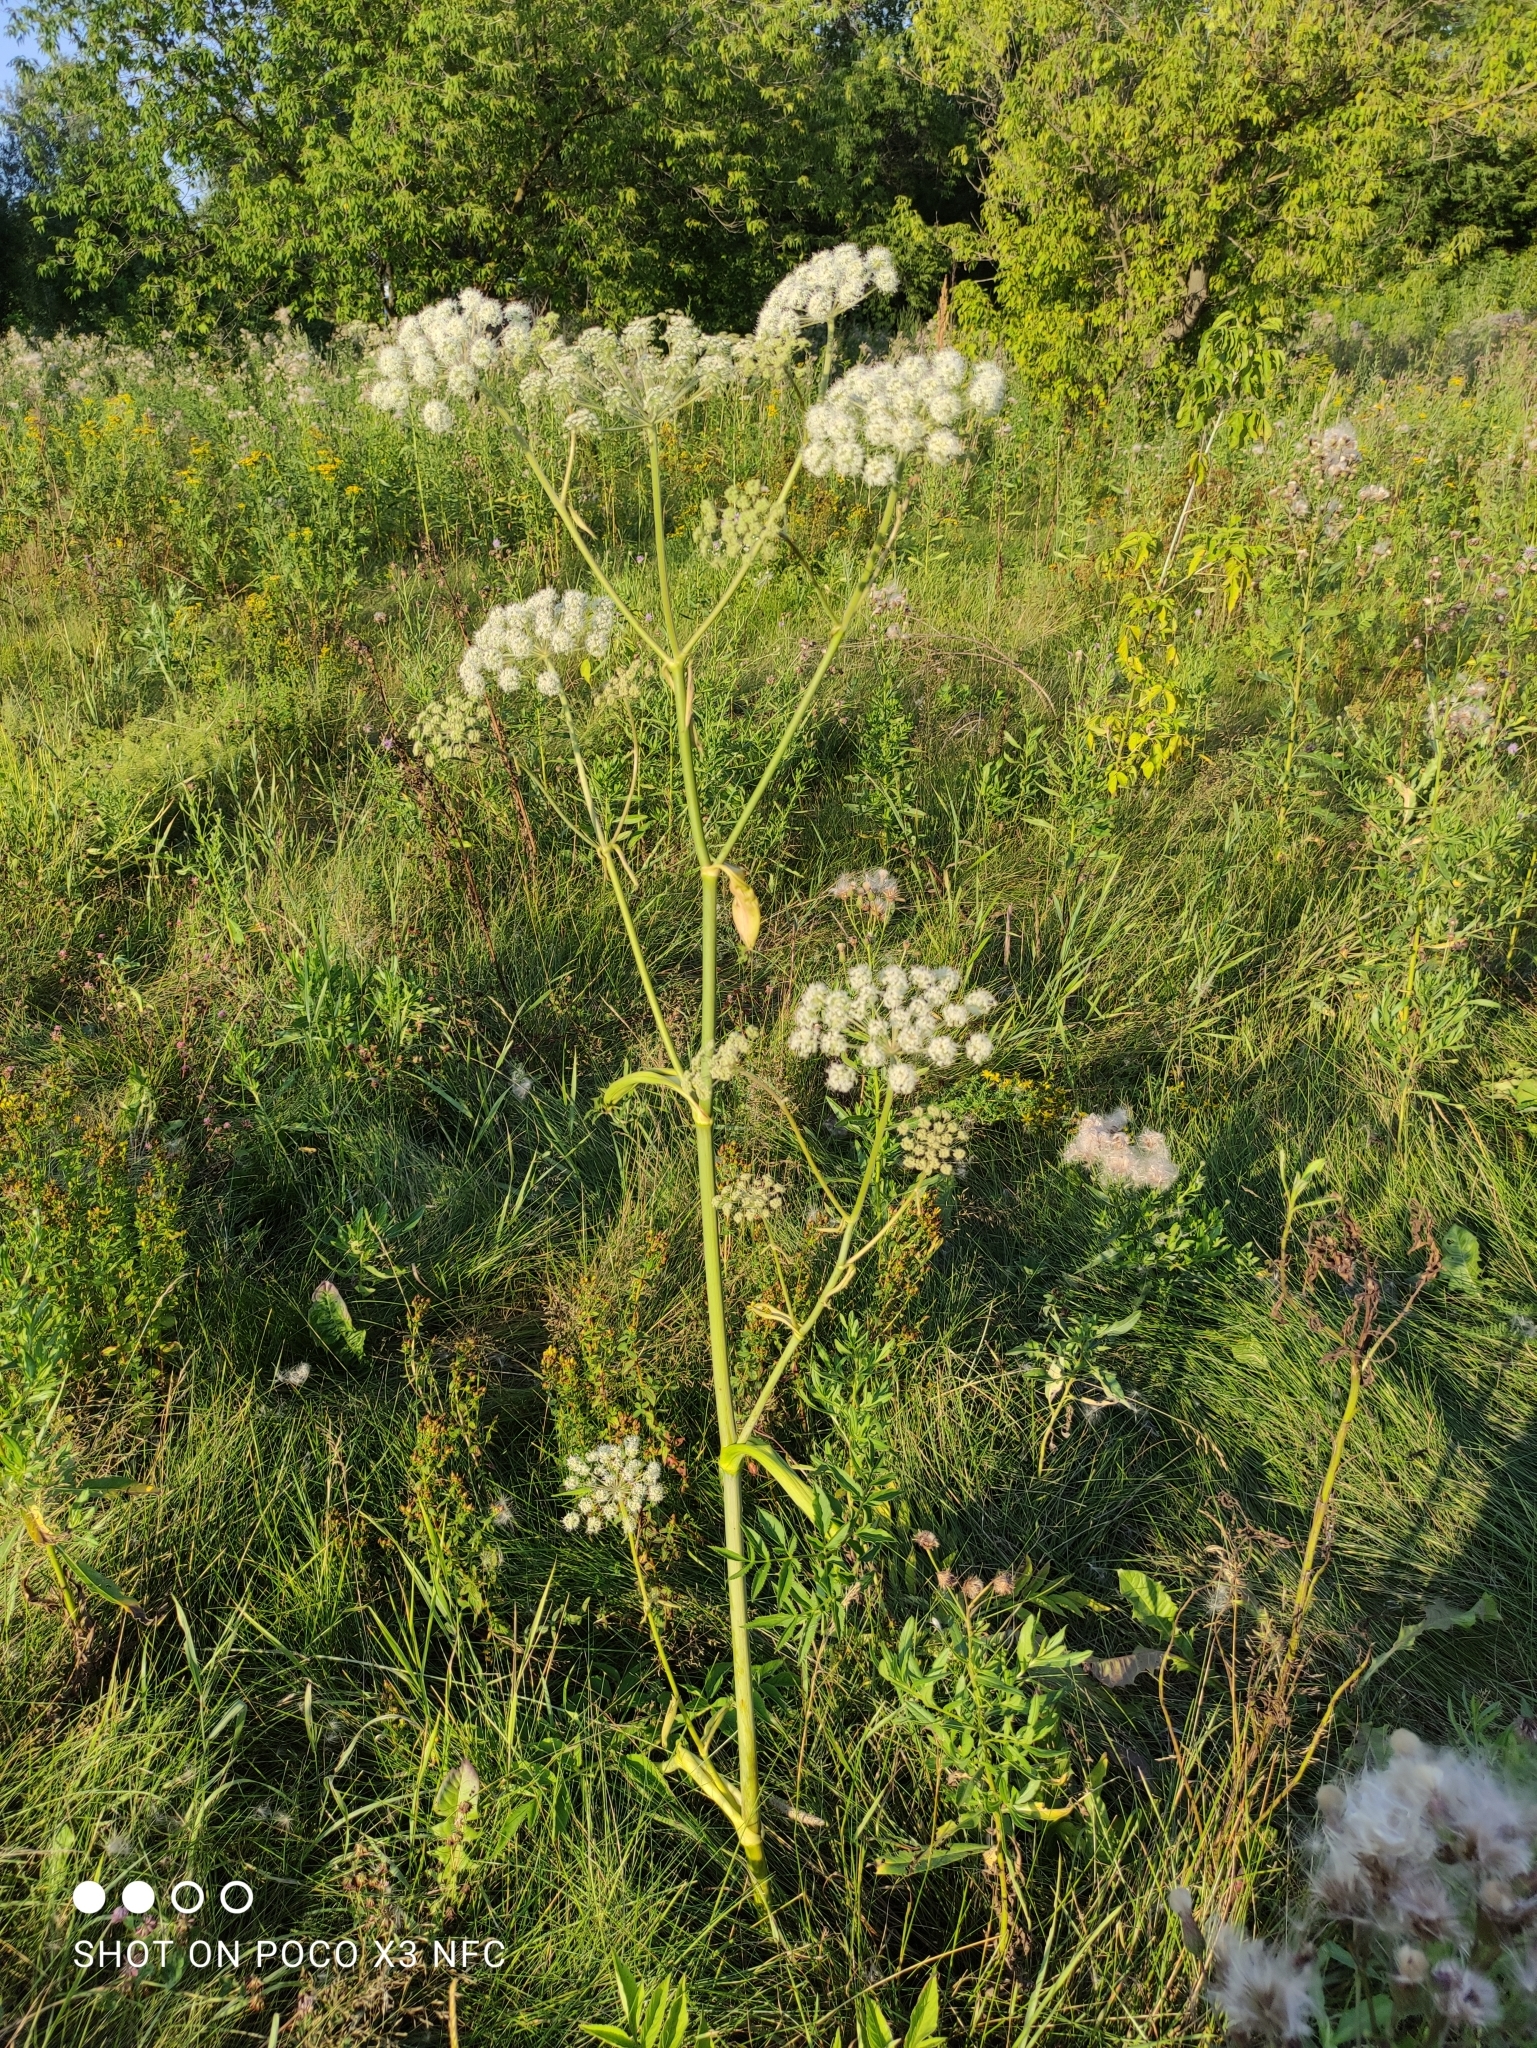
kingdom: Plantae
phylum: Tracheophyta
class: Magnoliopsida
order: Apiales
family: Apiaceae
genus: Angelica
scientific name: Angelica sylvestris
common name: Wild angelica
